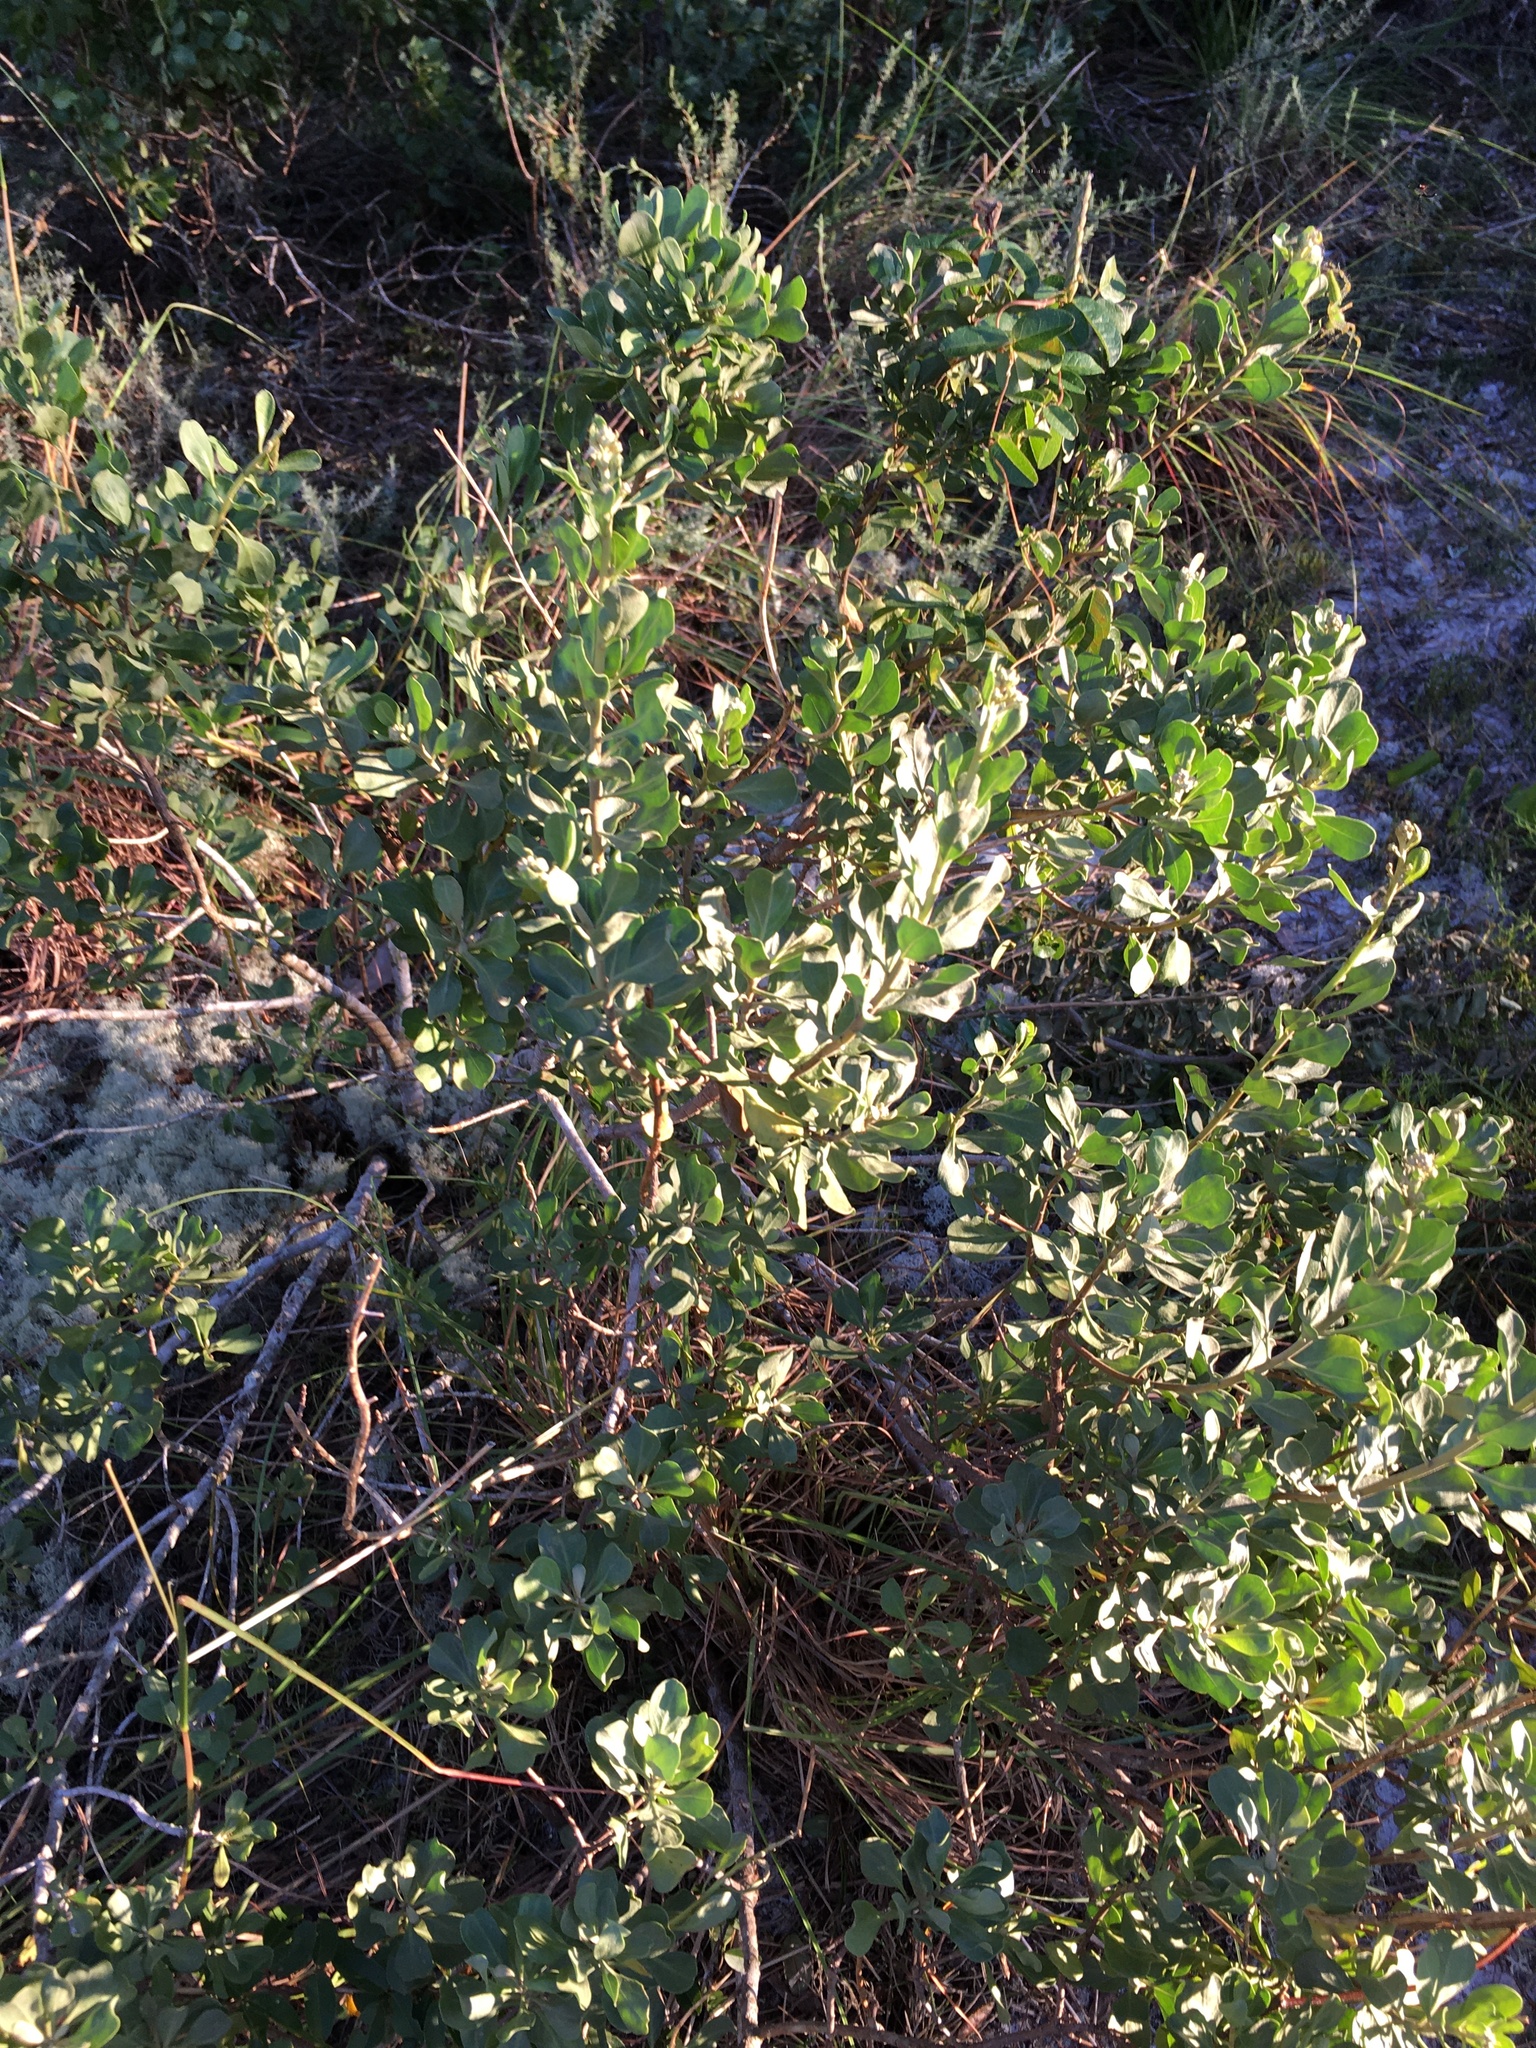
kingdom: Plantae
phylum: Tracheophyta
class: Magnoliopsida
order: Asterales
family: Asteraceae
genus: Garberia
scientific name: Garberia heterophylla
